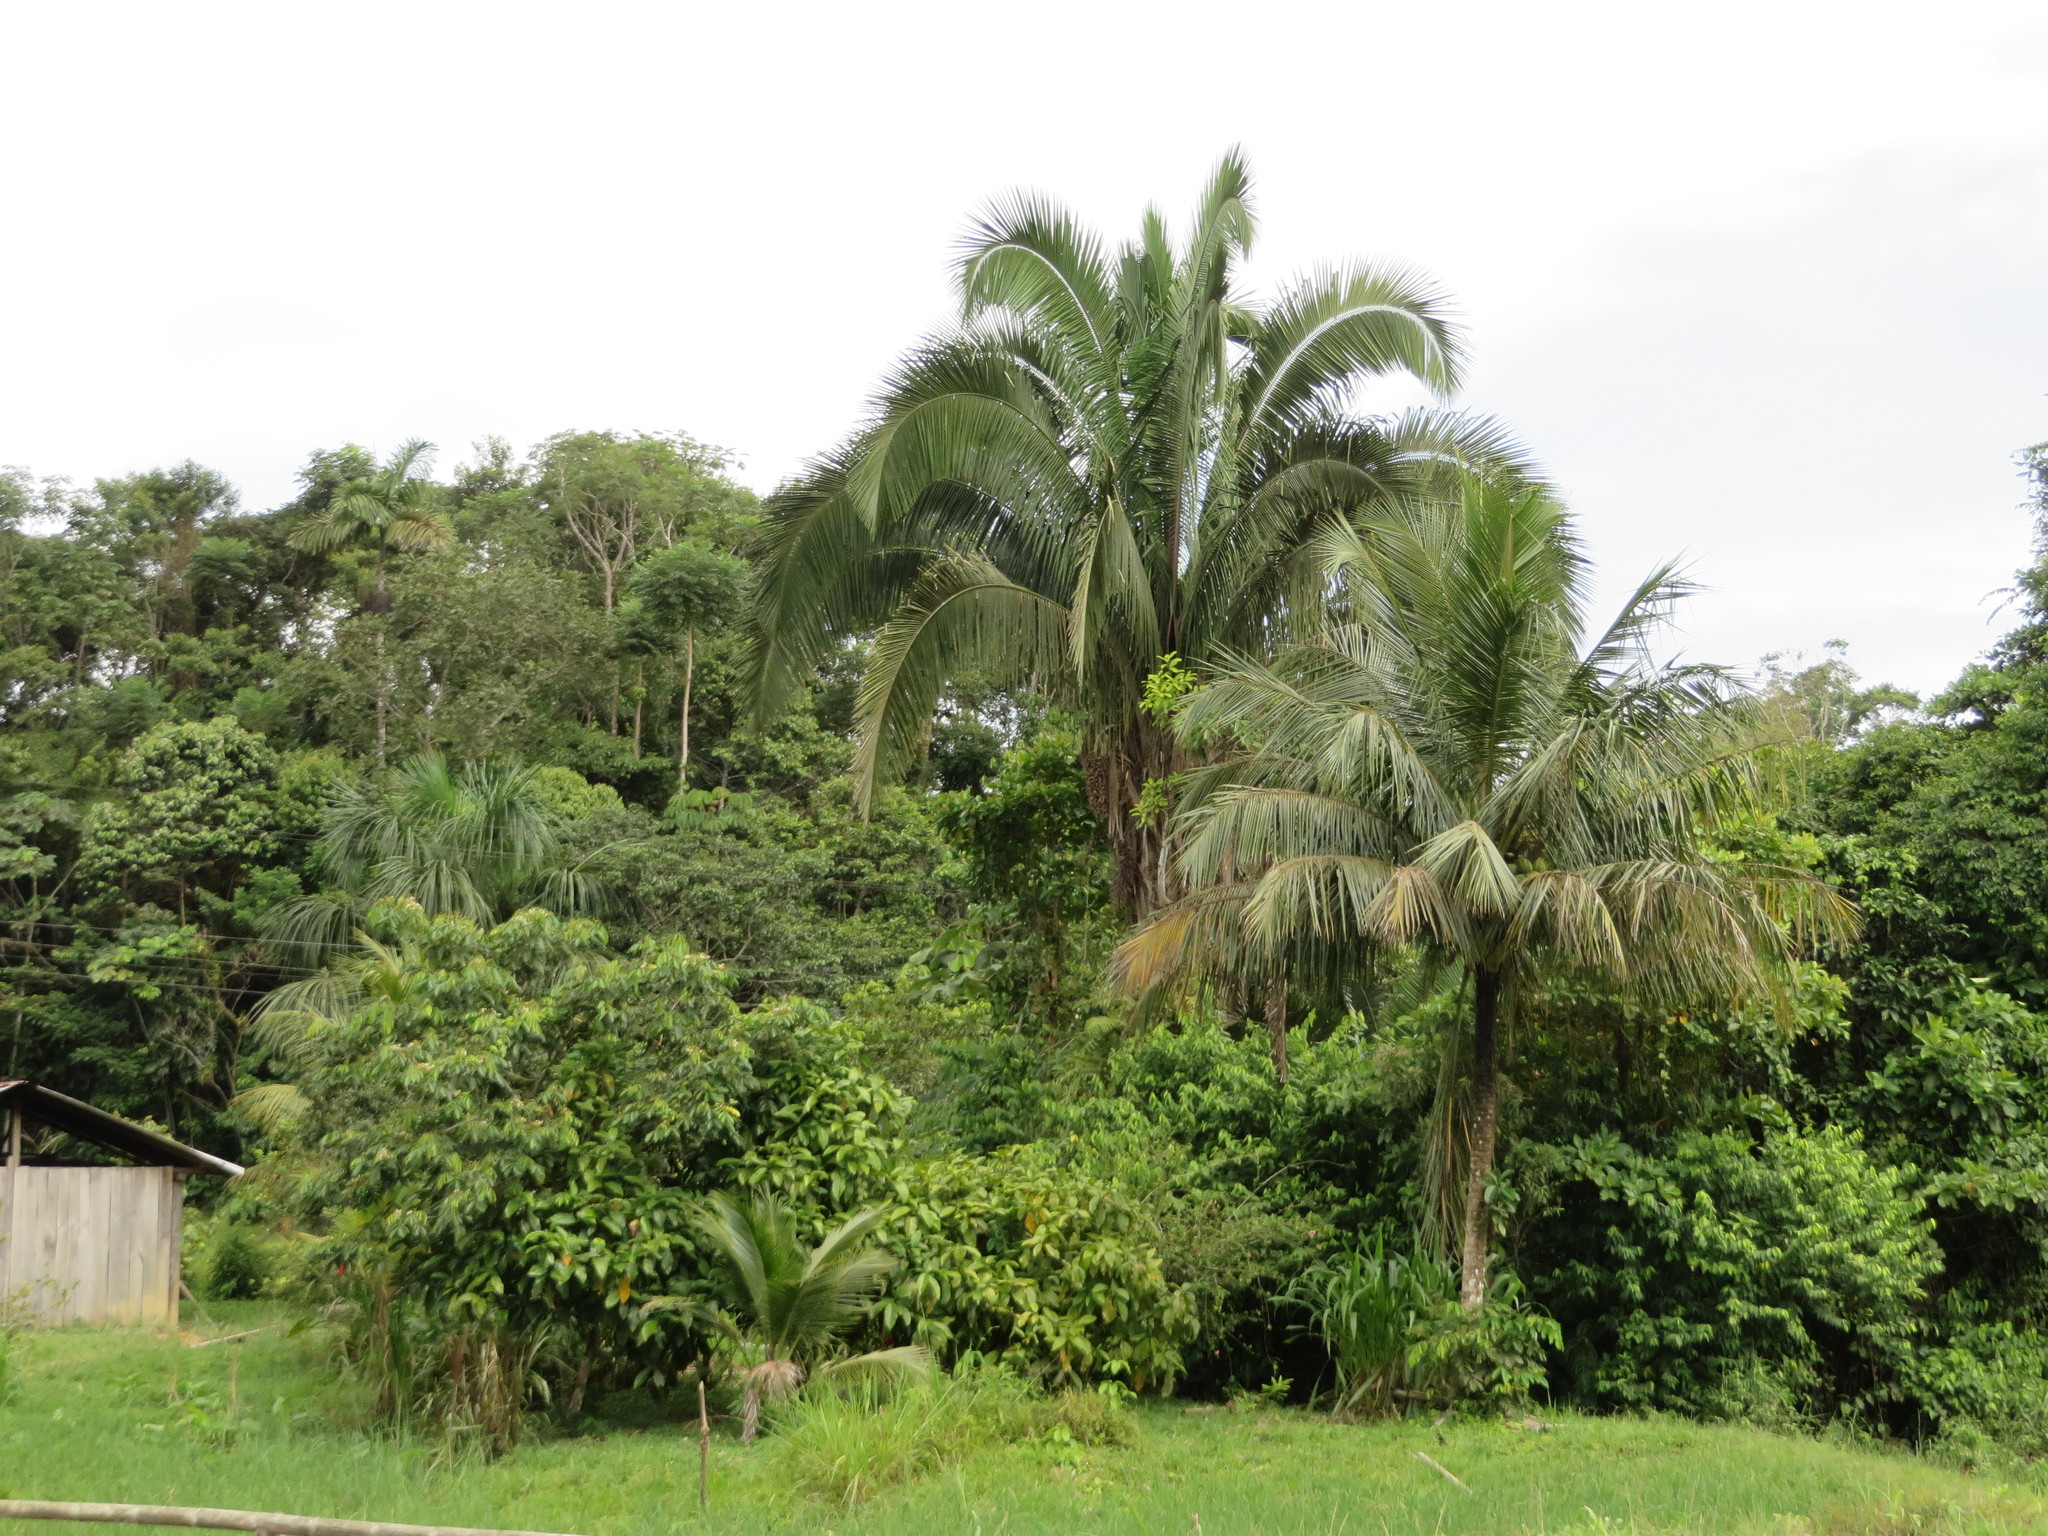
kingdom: Plantae
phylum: Tracheophyta
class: Liliopsida
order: Arecales
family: Arecaceae
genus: Attalea
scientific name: Attalea butyracea
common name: Kuakish
